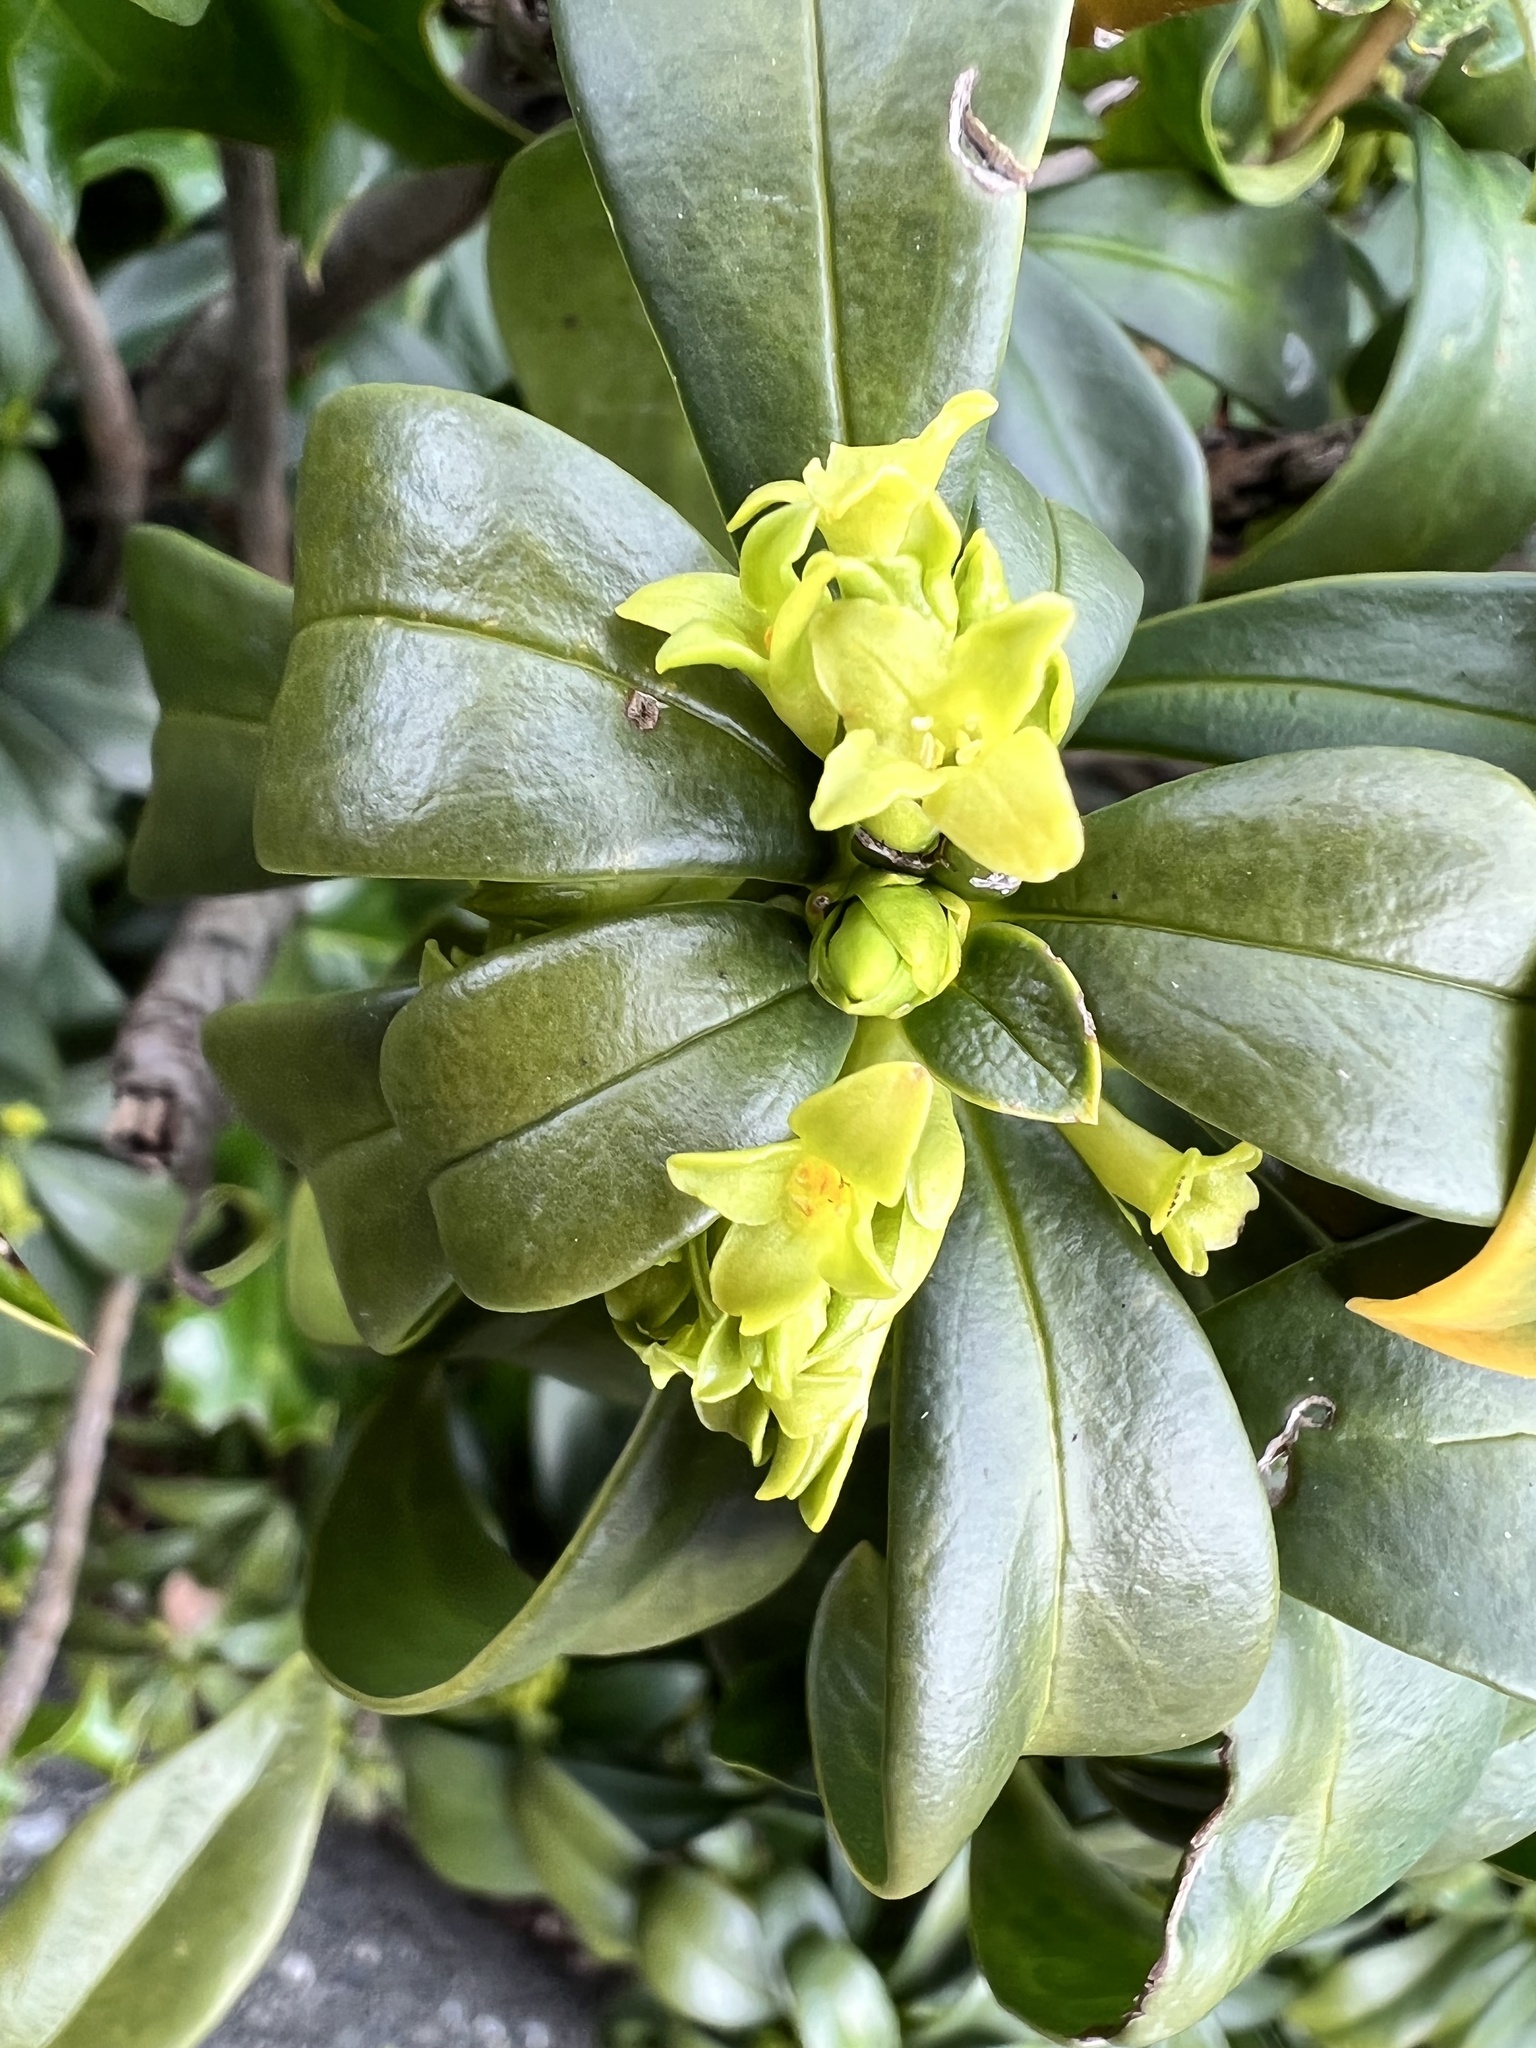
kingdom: Plantae
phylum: Tracheophyta
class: Magnoliopsida
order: Malvales
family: Thymelaeaceae
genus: Daphne
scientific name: Daphne laureola
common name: Spurge-laurel
